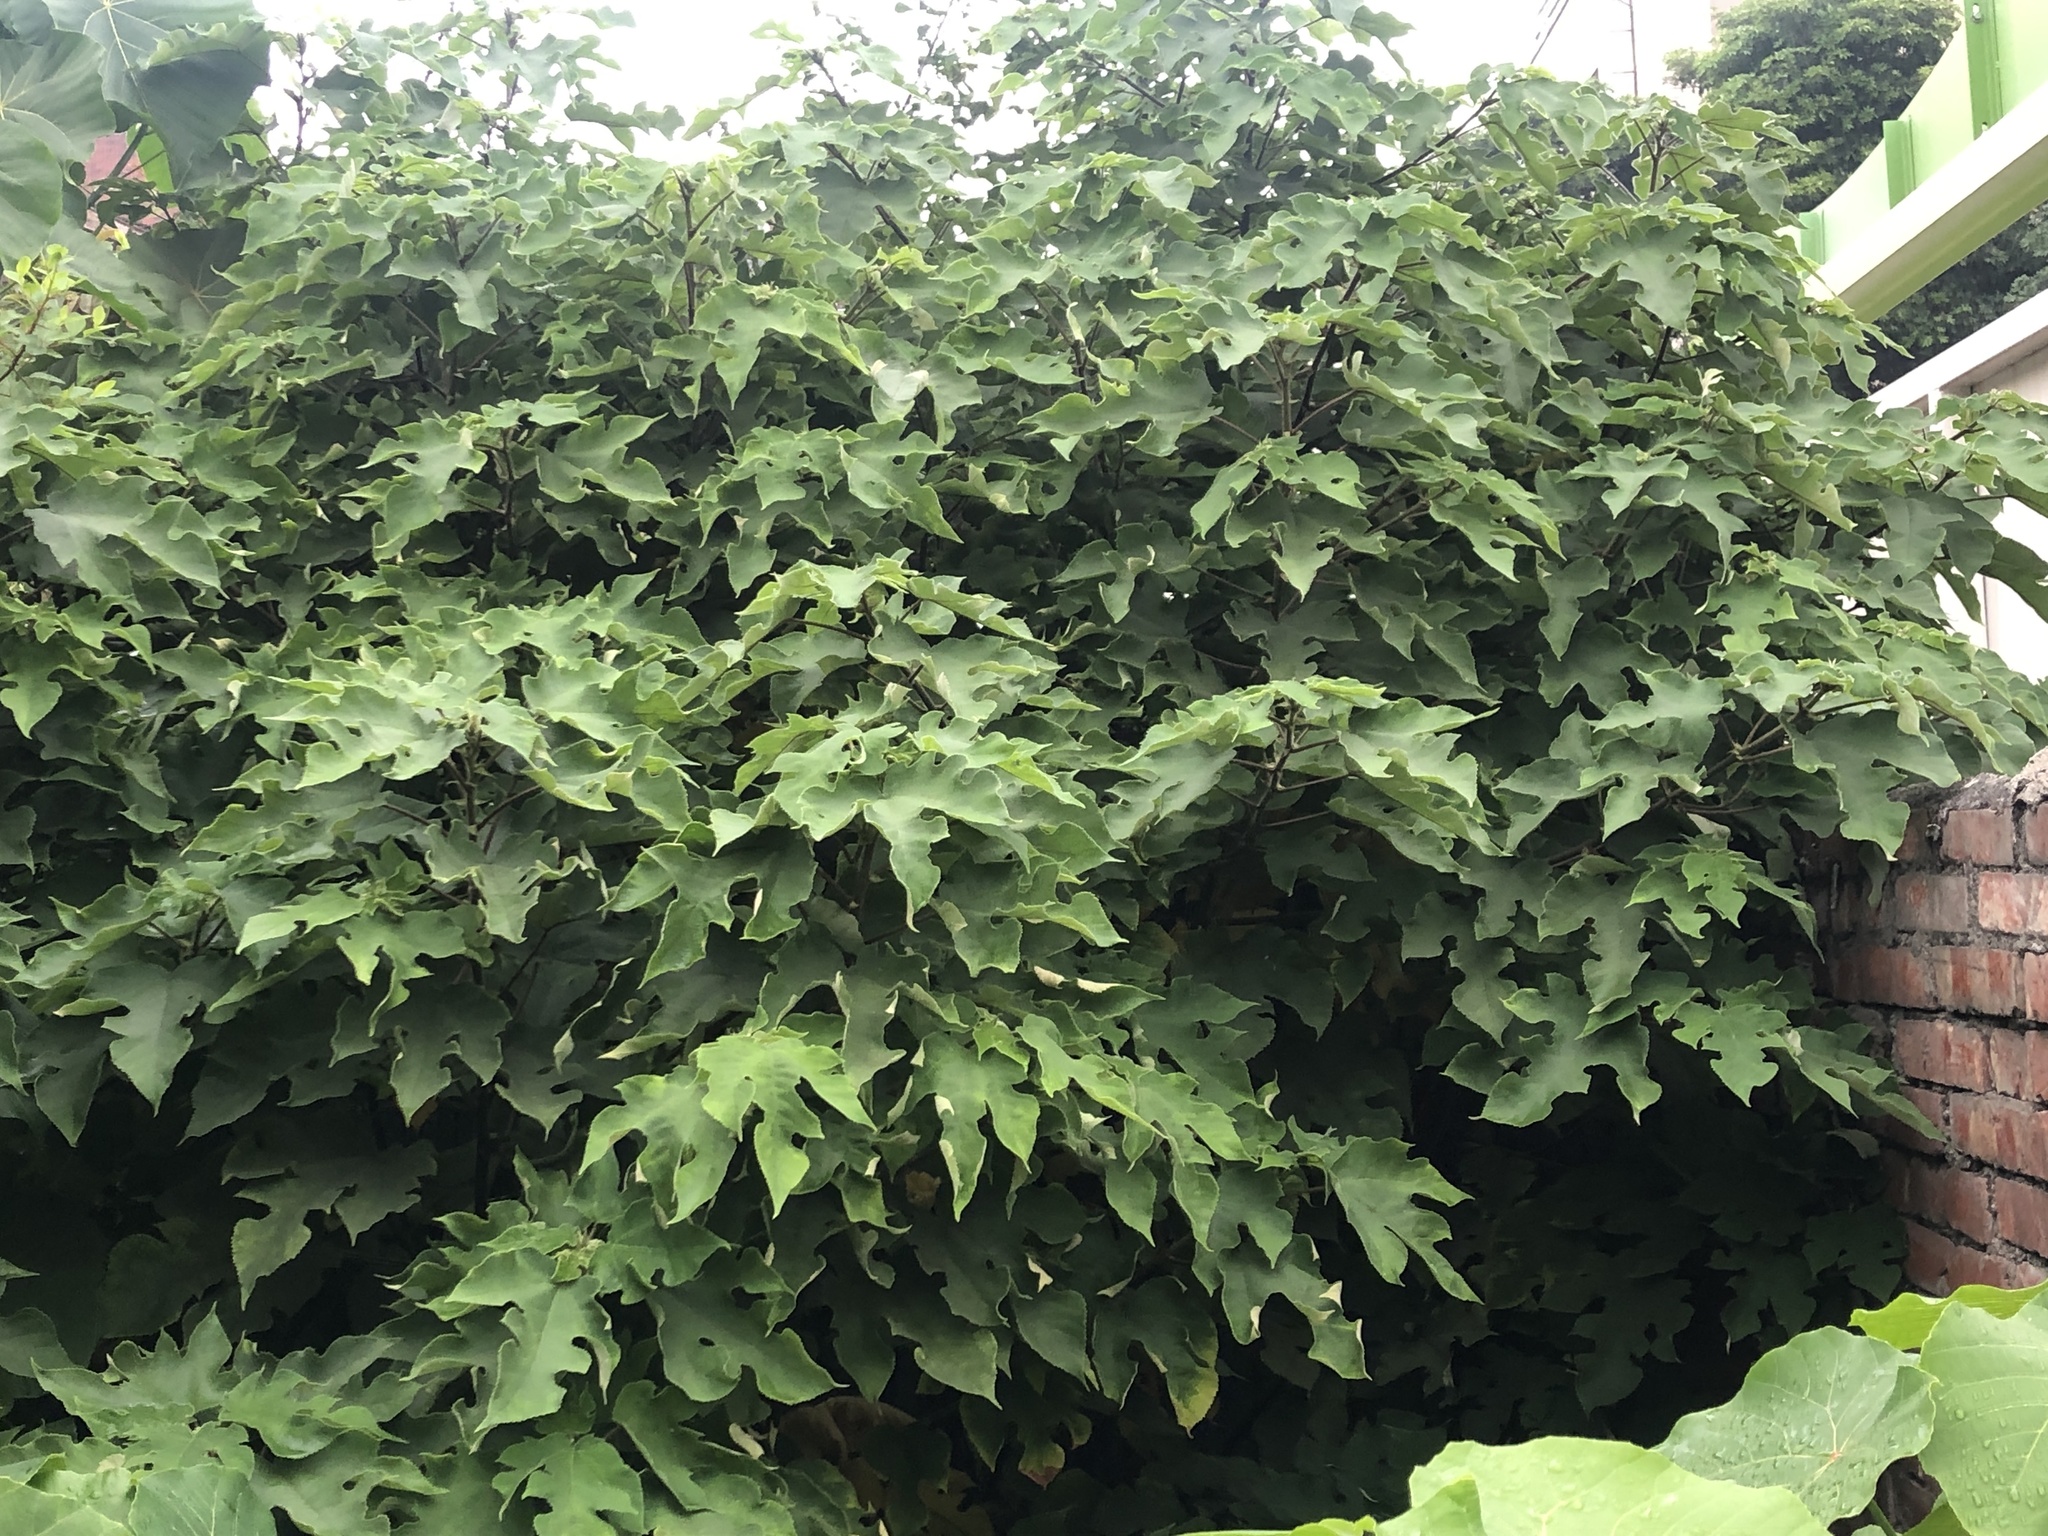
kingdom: Plantae
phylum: Tracheophyta
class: Magnoliopsida
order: Rosales
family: Moraceae
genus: Broussonetia
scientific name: Broussonetia papyrifera
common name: Paper mulberry
